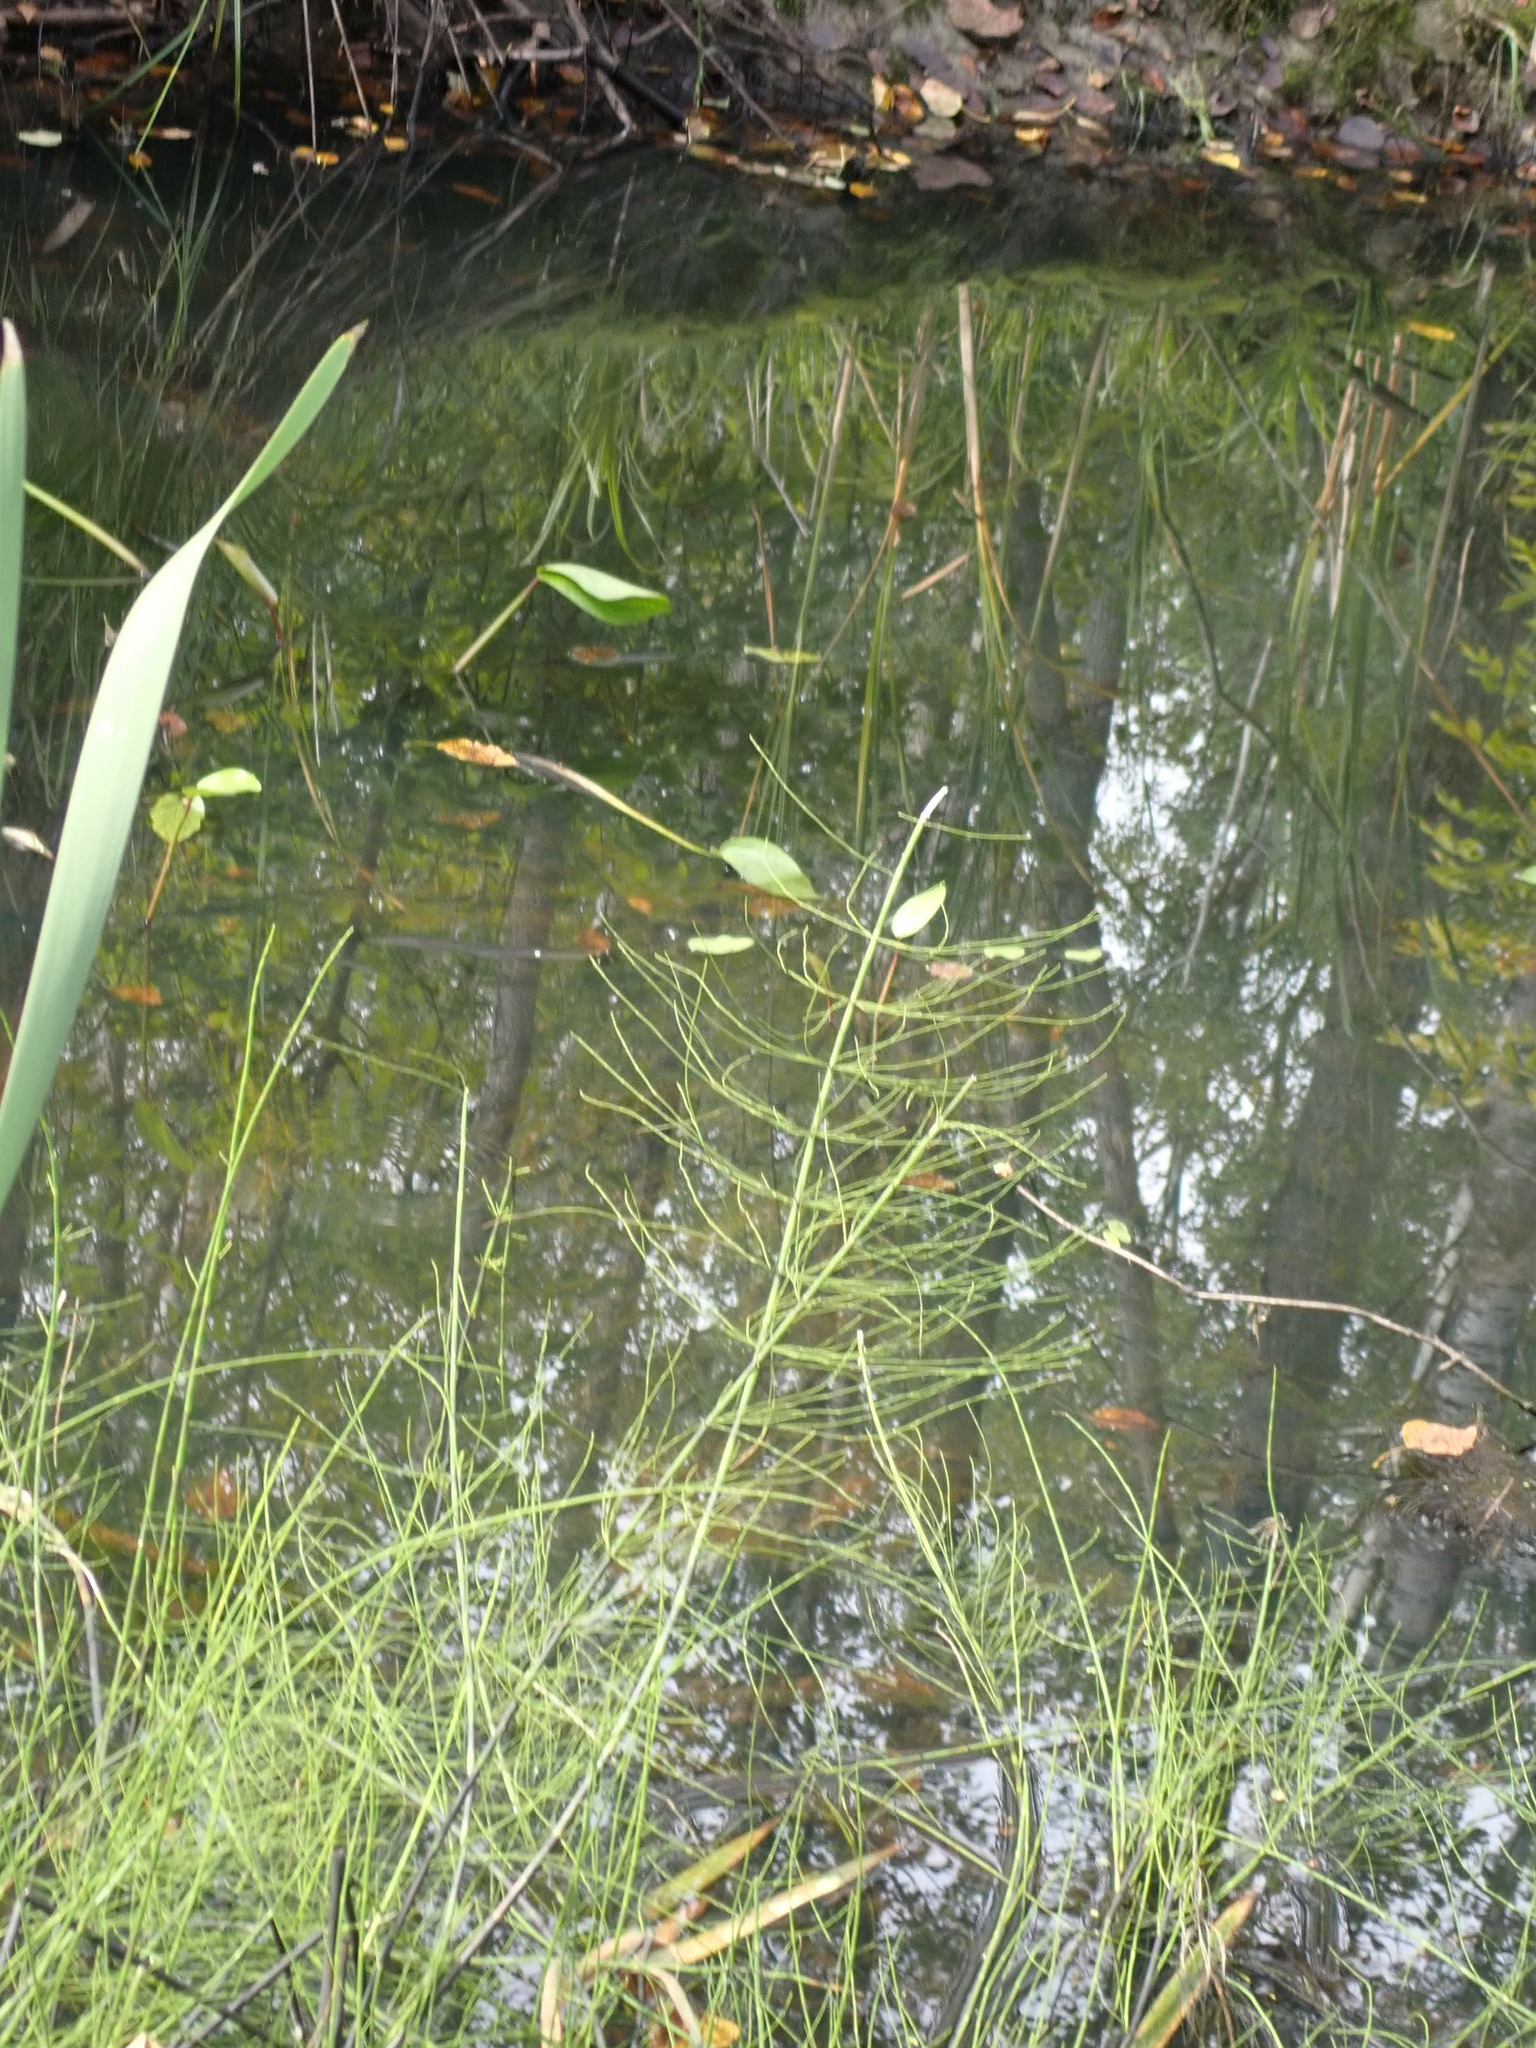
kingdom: Plantae
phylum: Tracheophyta
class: Polypodiopsida
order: Equisetales
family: Equisetaceae
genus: Equisetum
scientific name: Equisetum fluviatile
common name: Water horsetail
